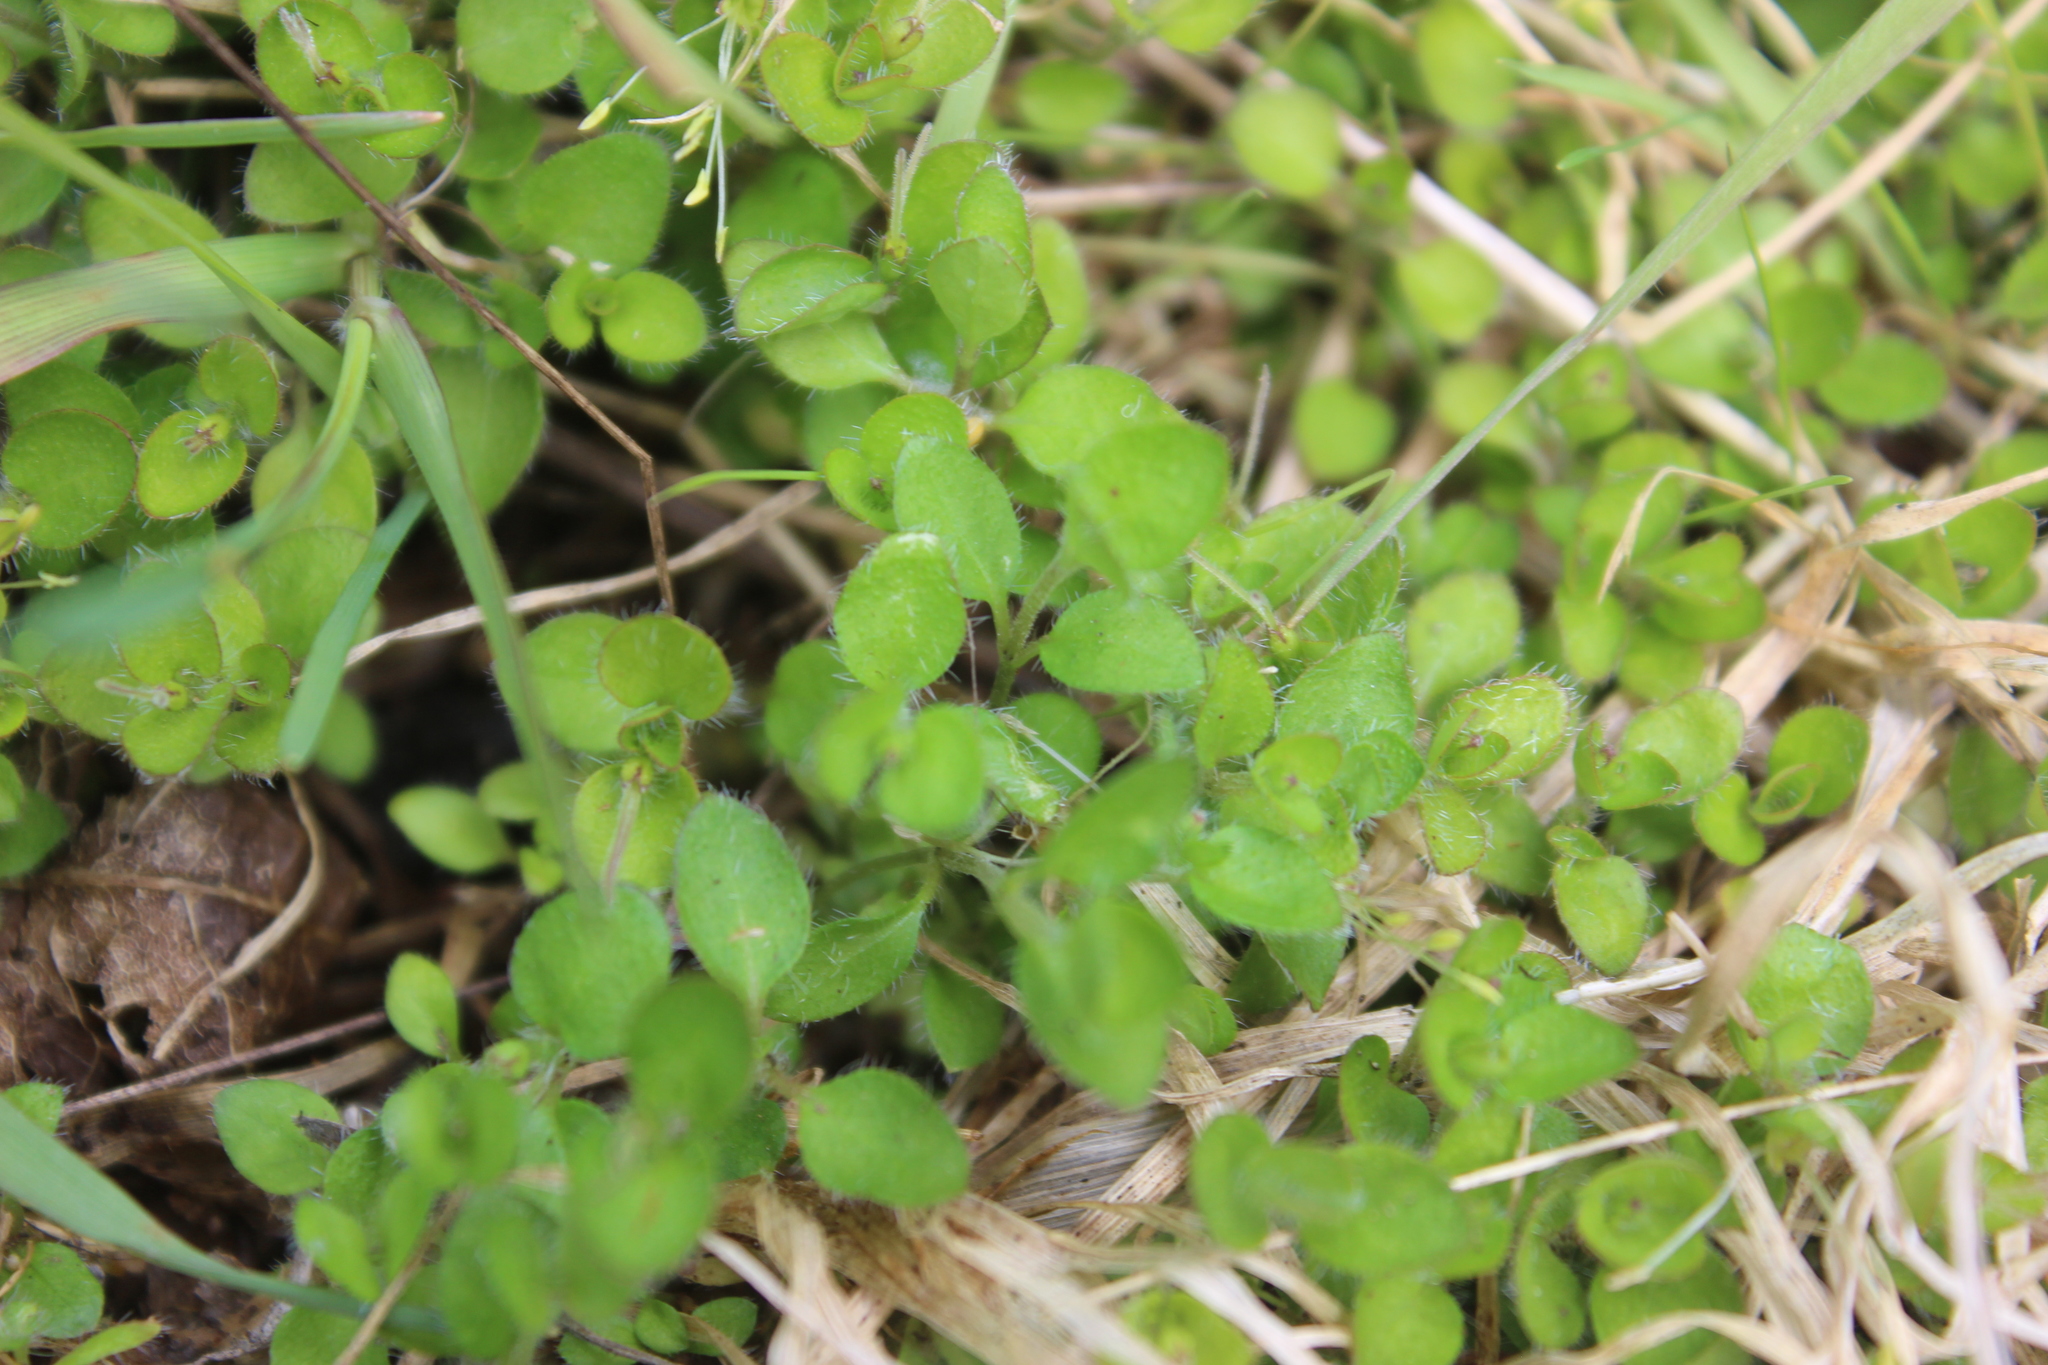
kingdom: Plantae
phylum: Tracheophyta
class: Magnoliopsida
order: Gentianales
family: Rubiaceae
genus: Leptostigma
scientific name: Leptostigma setulosum
